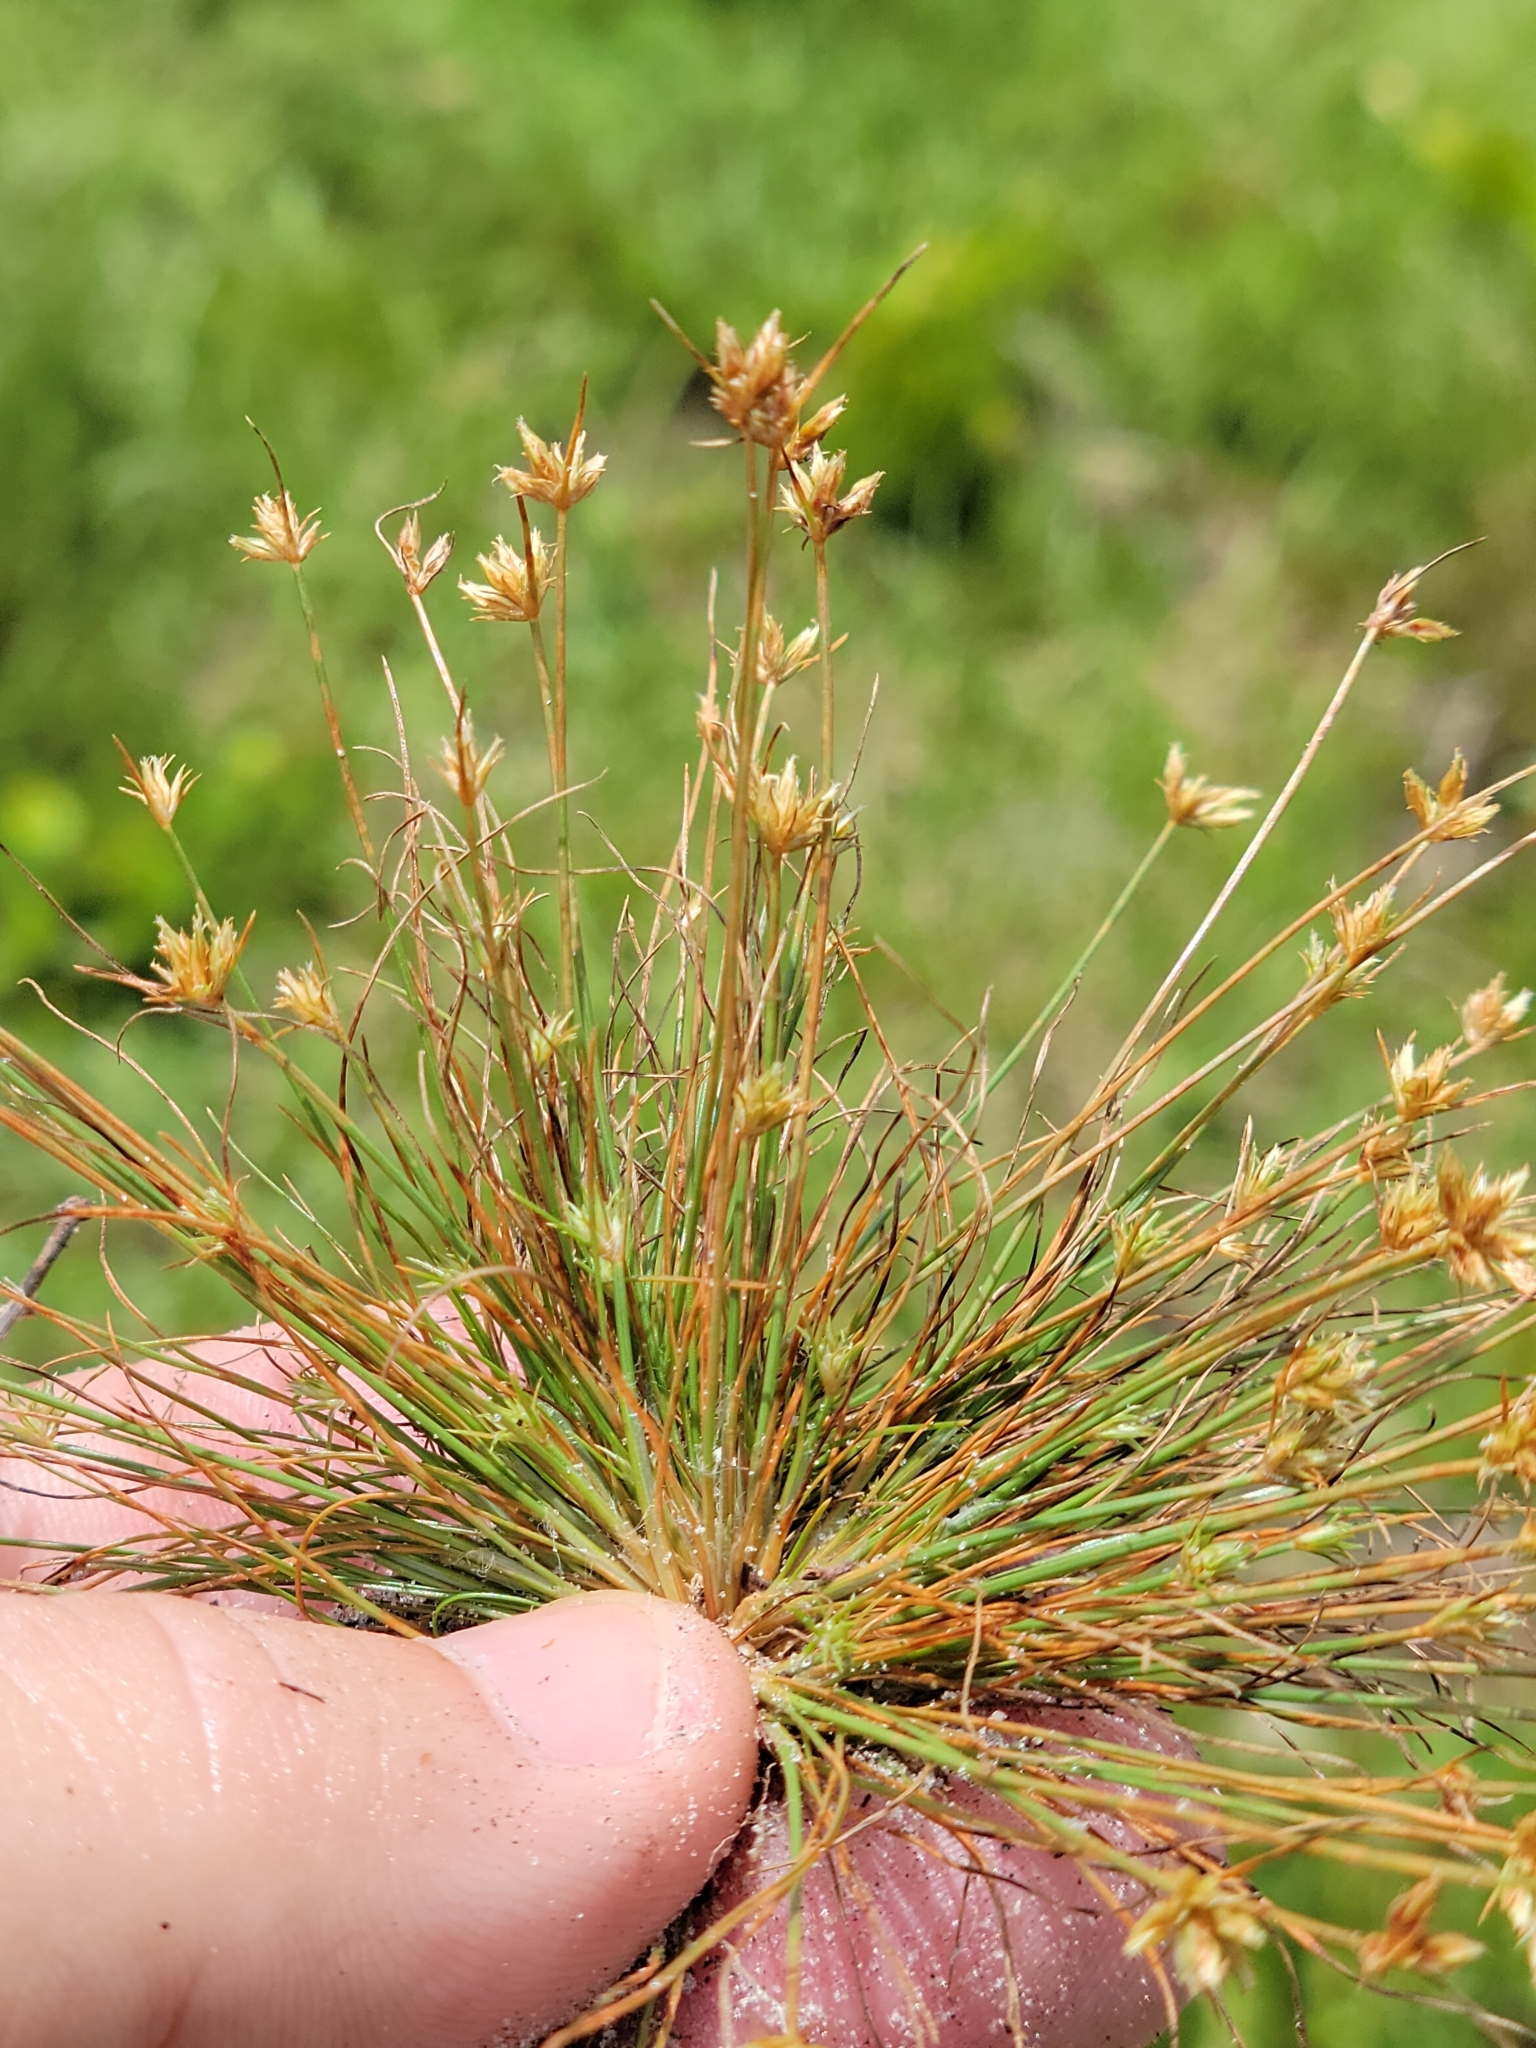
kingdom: Plantae
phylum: Tracheophyta
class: Liliopsida
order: Poales
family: Cyperaceae
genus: Bulbostylis
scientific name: Bulbostylis barbata
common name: Watergrass
